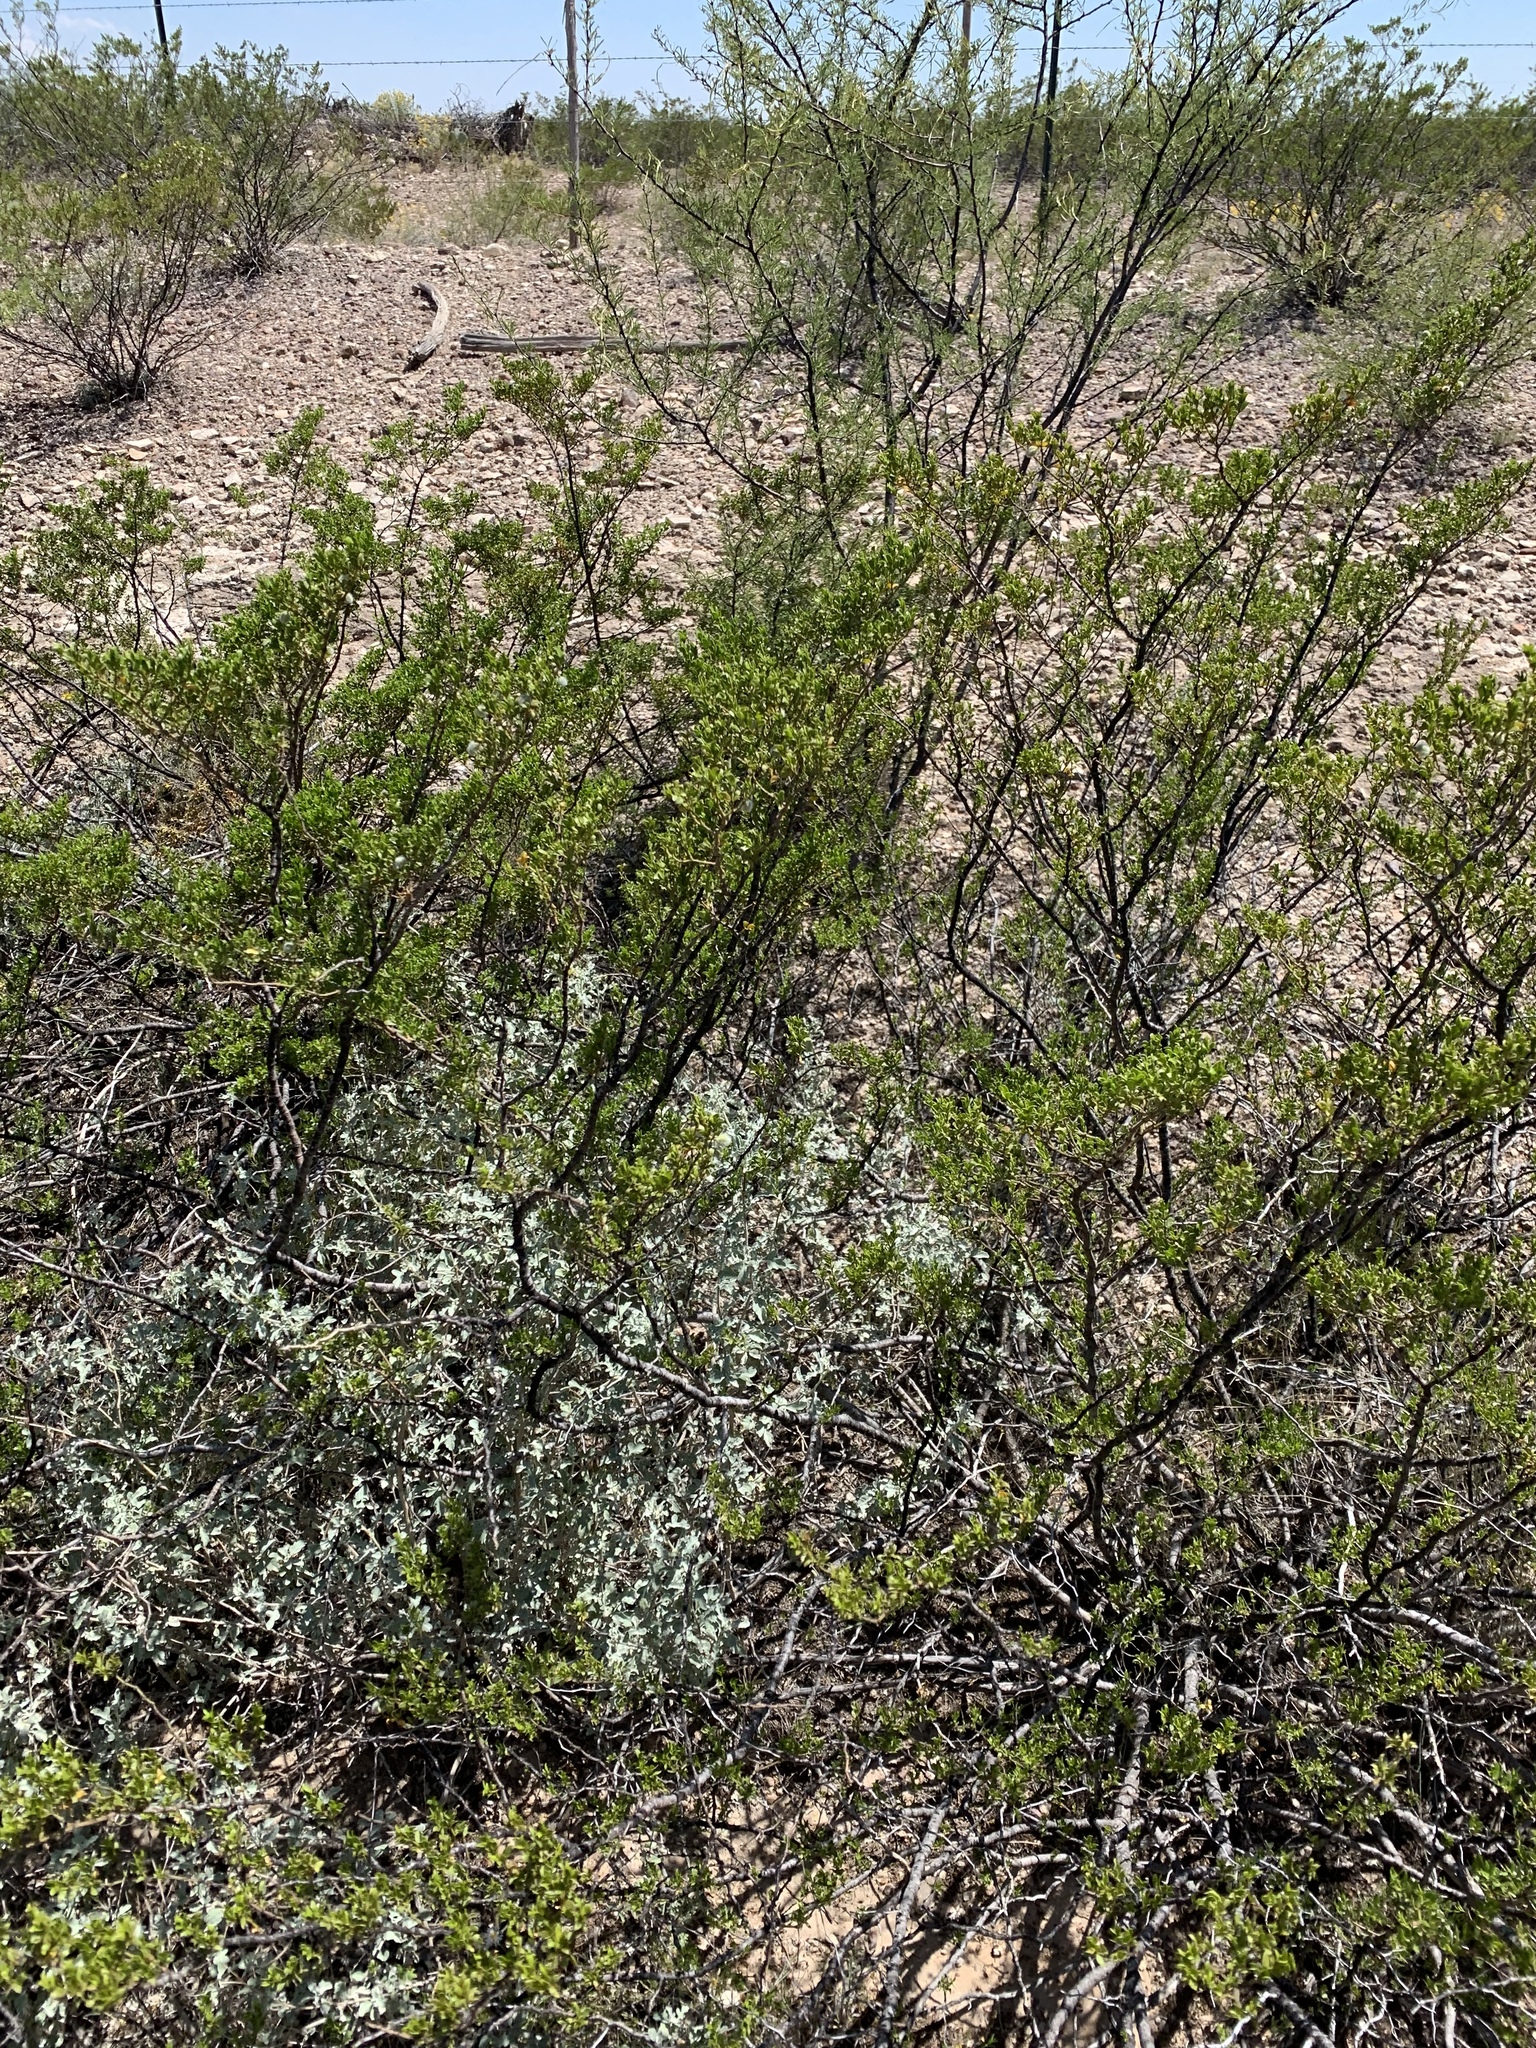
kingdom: Plantae
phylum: Tracheophyta
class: Magnoliopsida
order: Zygophyllales
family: Zygophyllaceae
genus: Larrea
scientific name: Larrea tridentata
